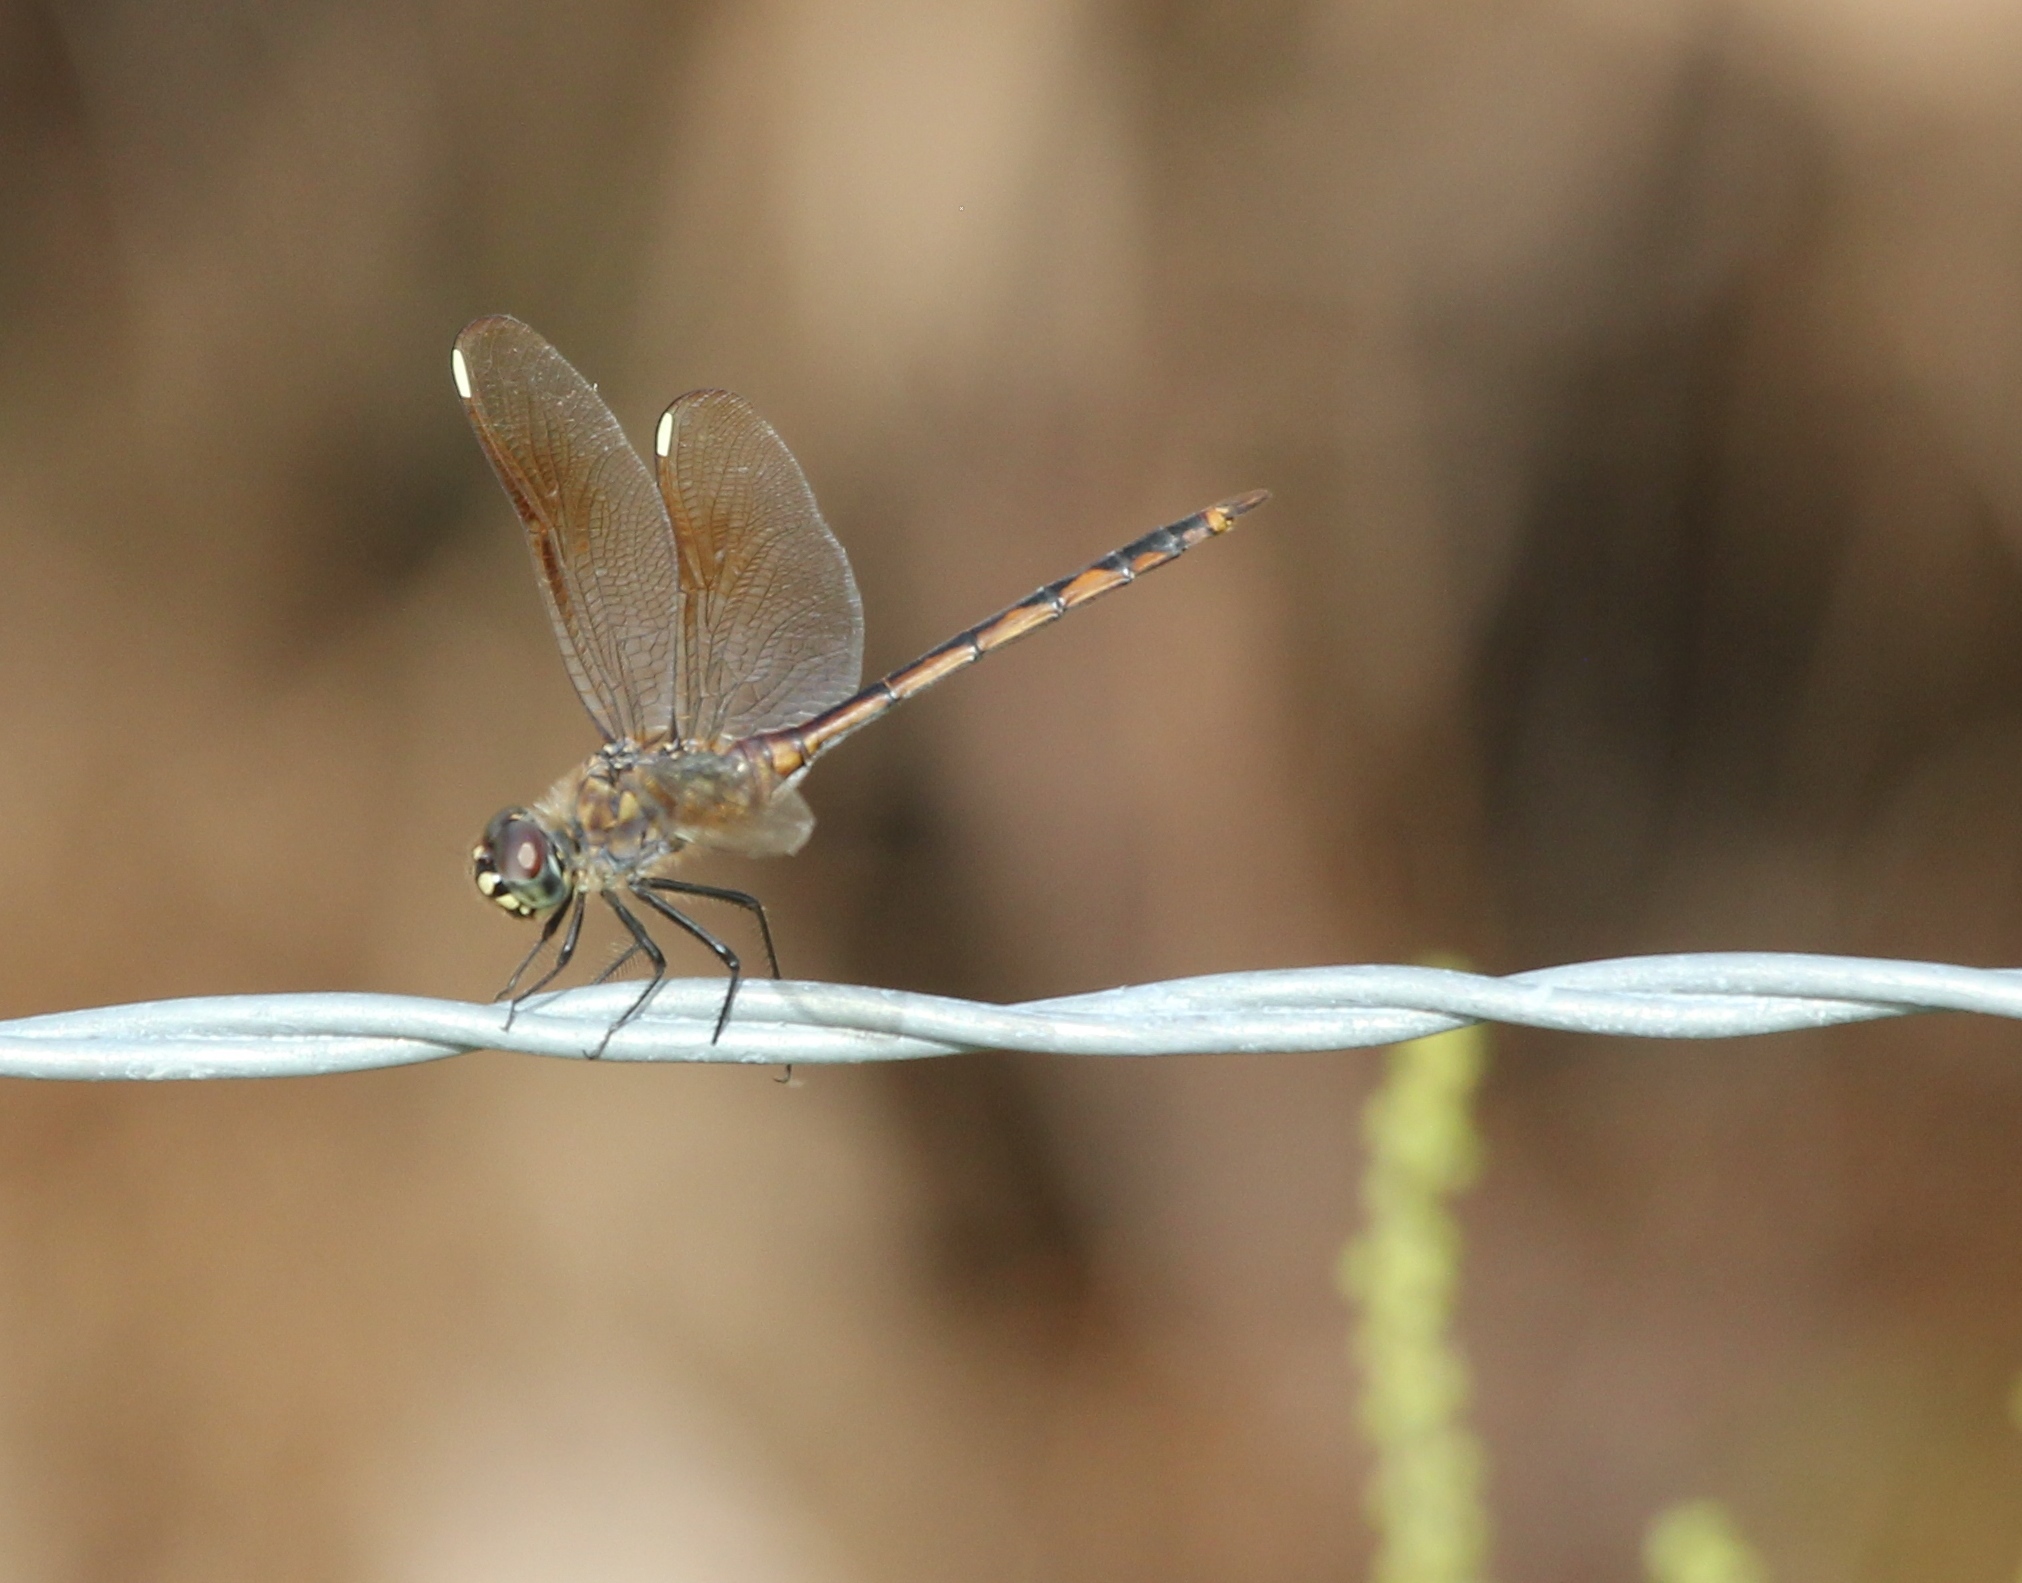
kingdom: Animalia
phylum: Arthropoda
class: Insecta
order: Odonata
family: Libellulidae
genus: Brachymesia
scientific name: Brachymesia gravida
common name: Four-spotted pennant
